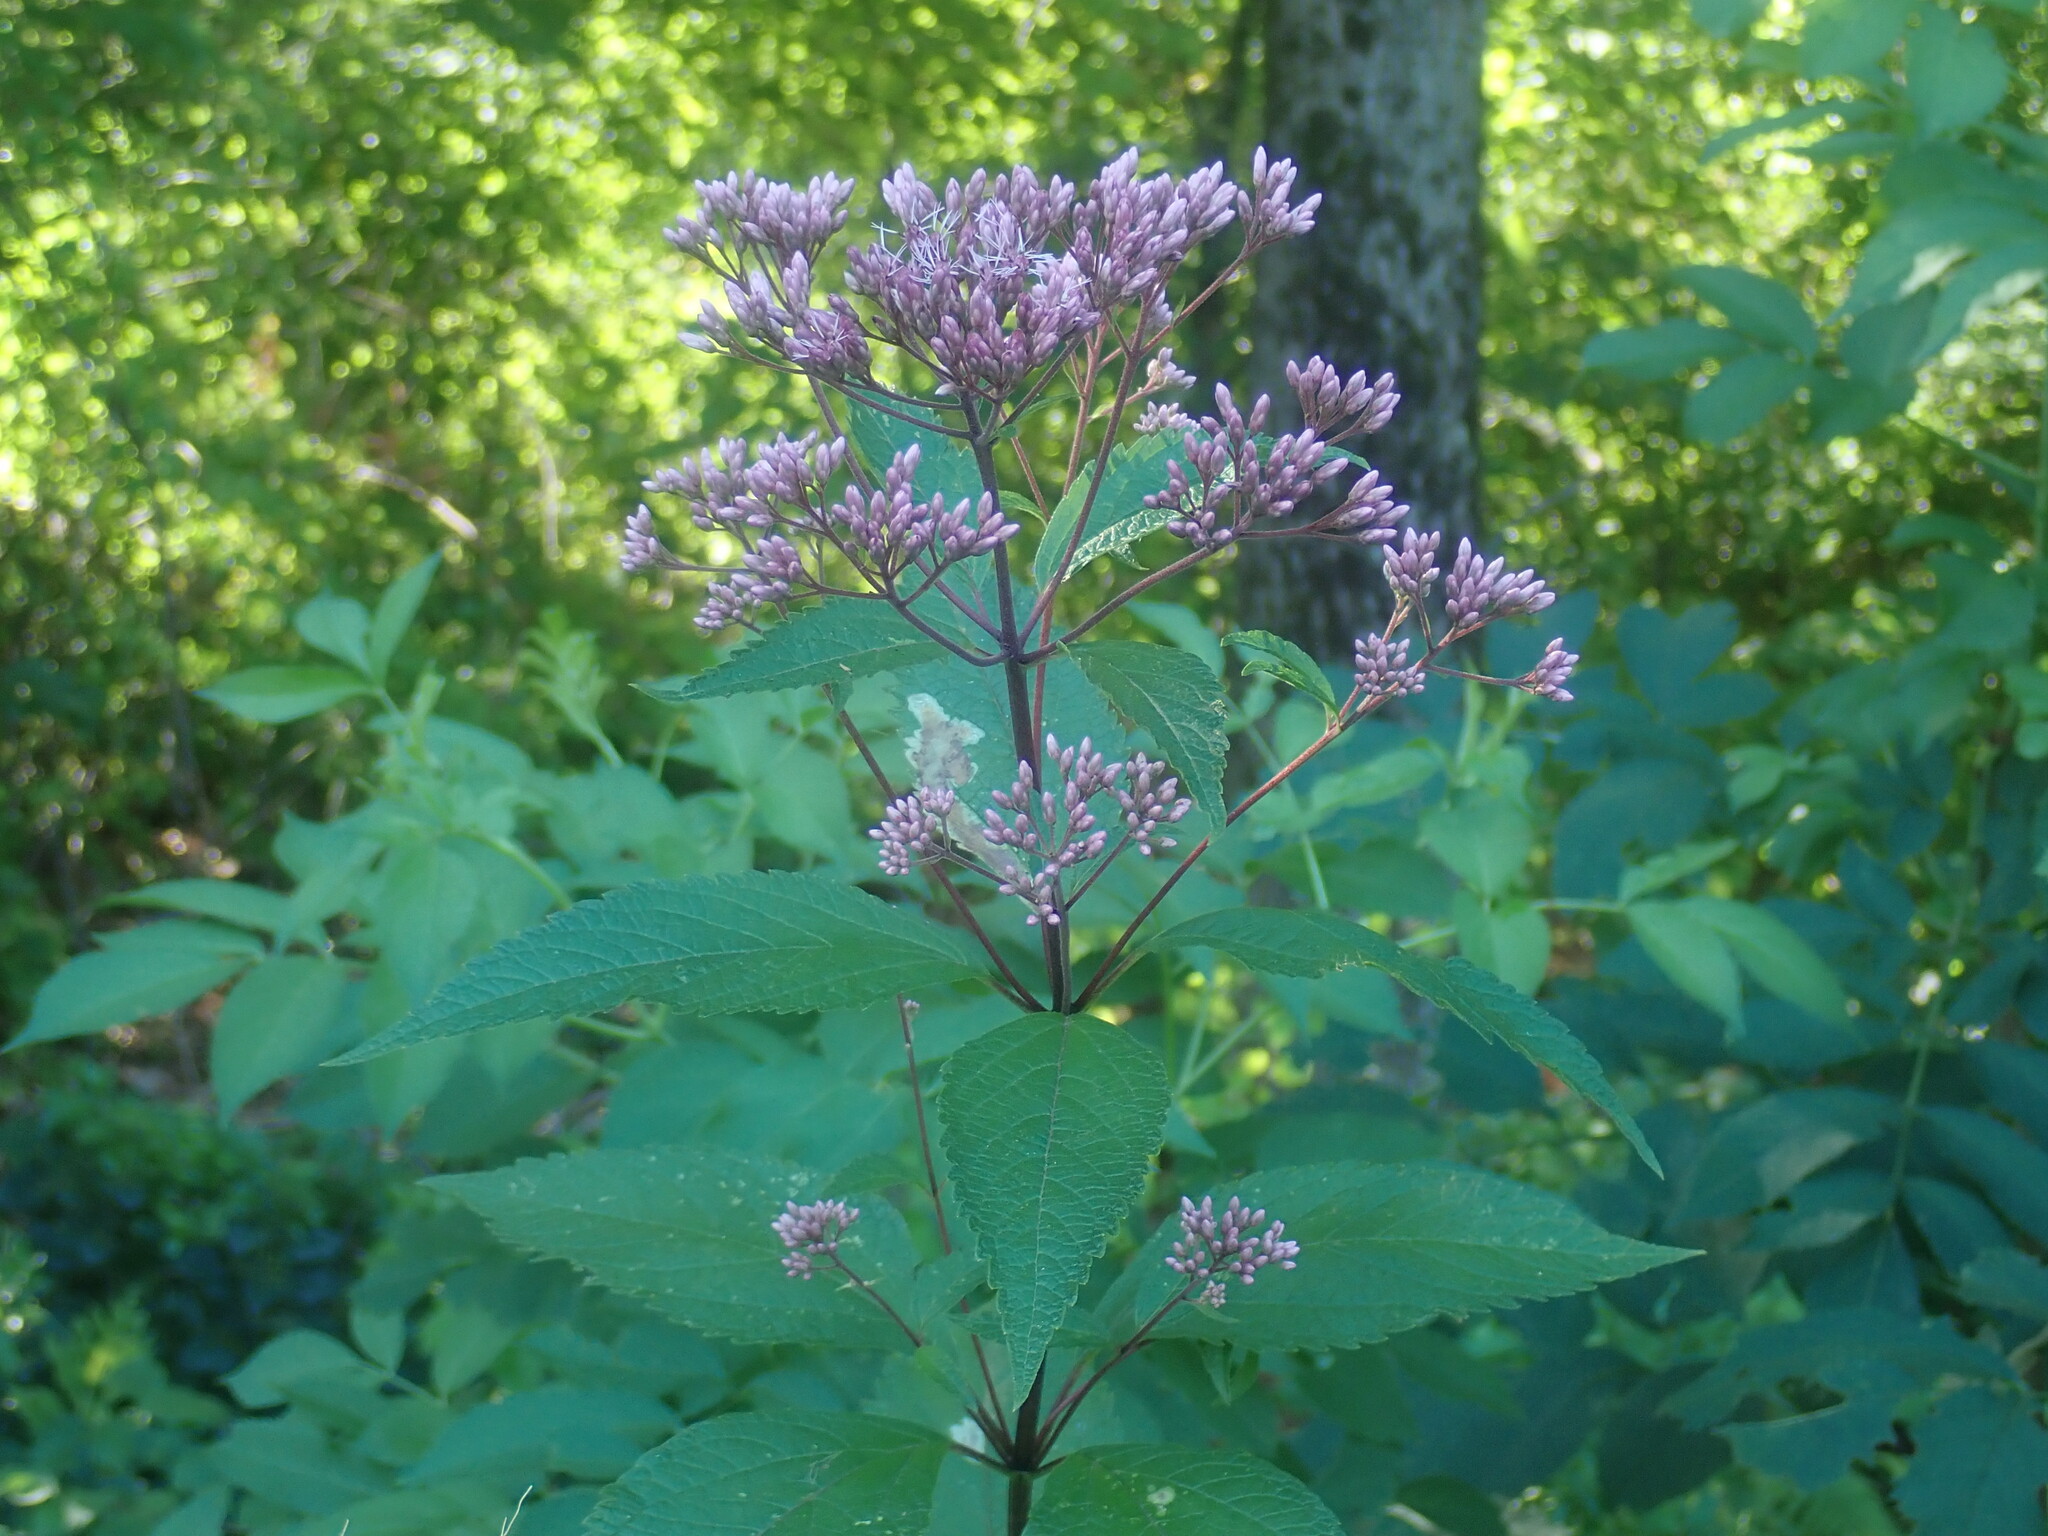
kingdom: Plantae
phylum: Tracheophyta
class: Magnoliopsida
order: Asterales
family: Asteraceae
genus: Eutrochium
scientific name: Eutrochium
